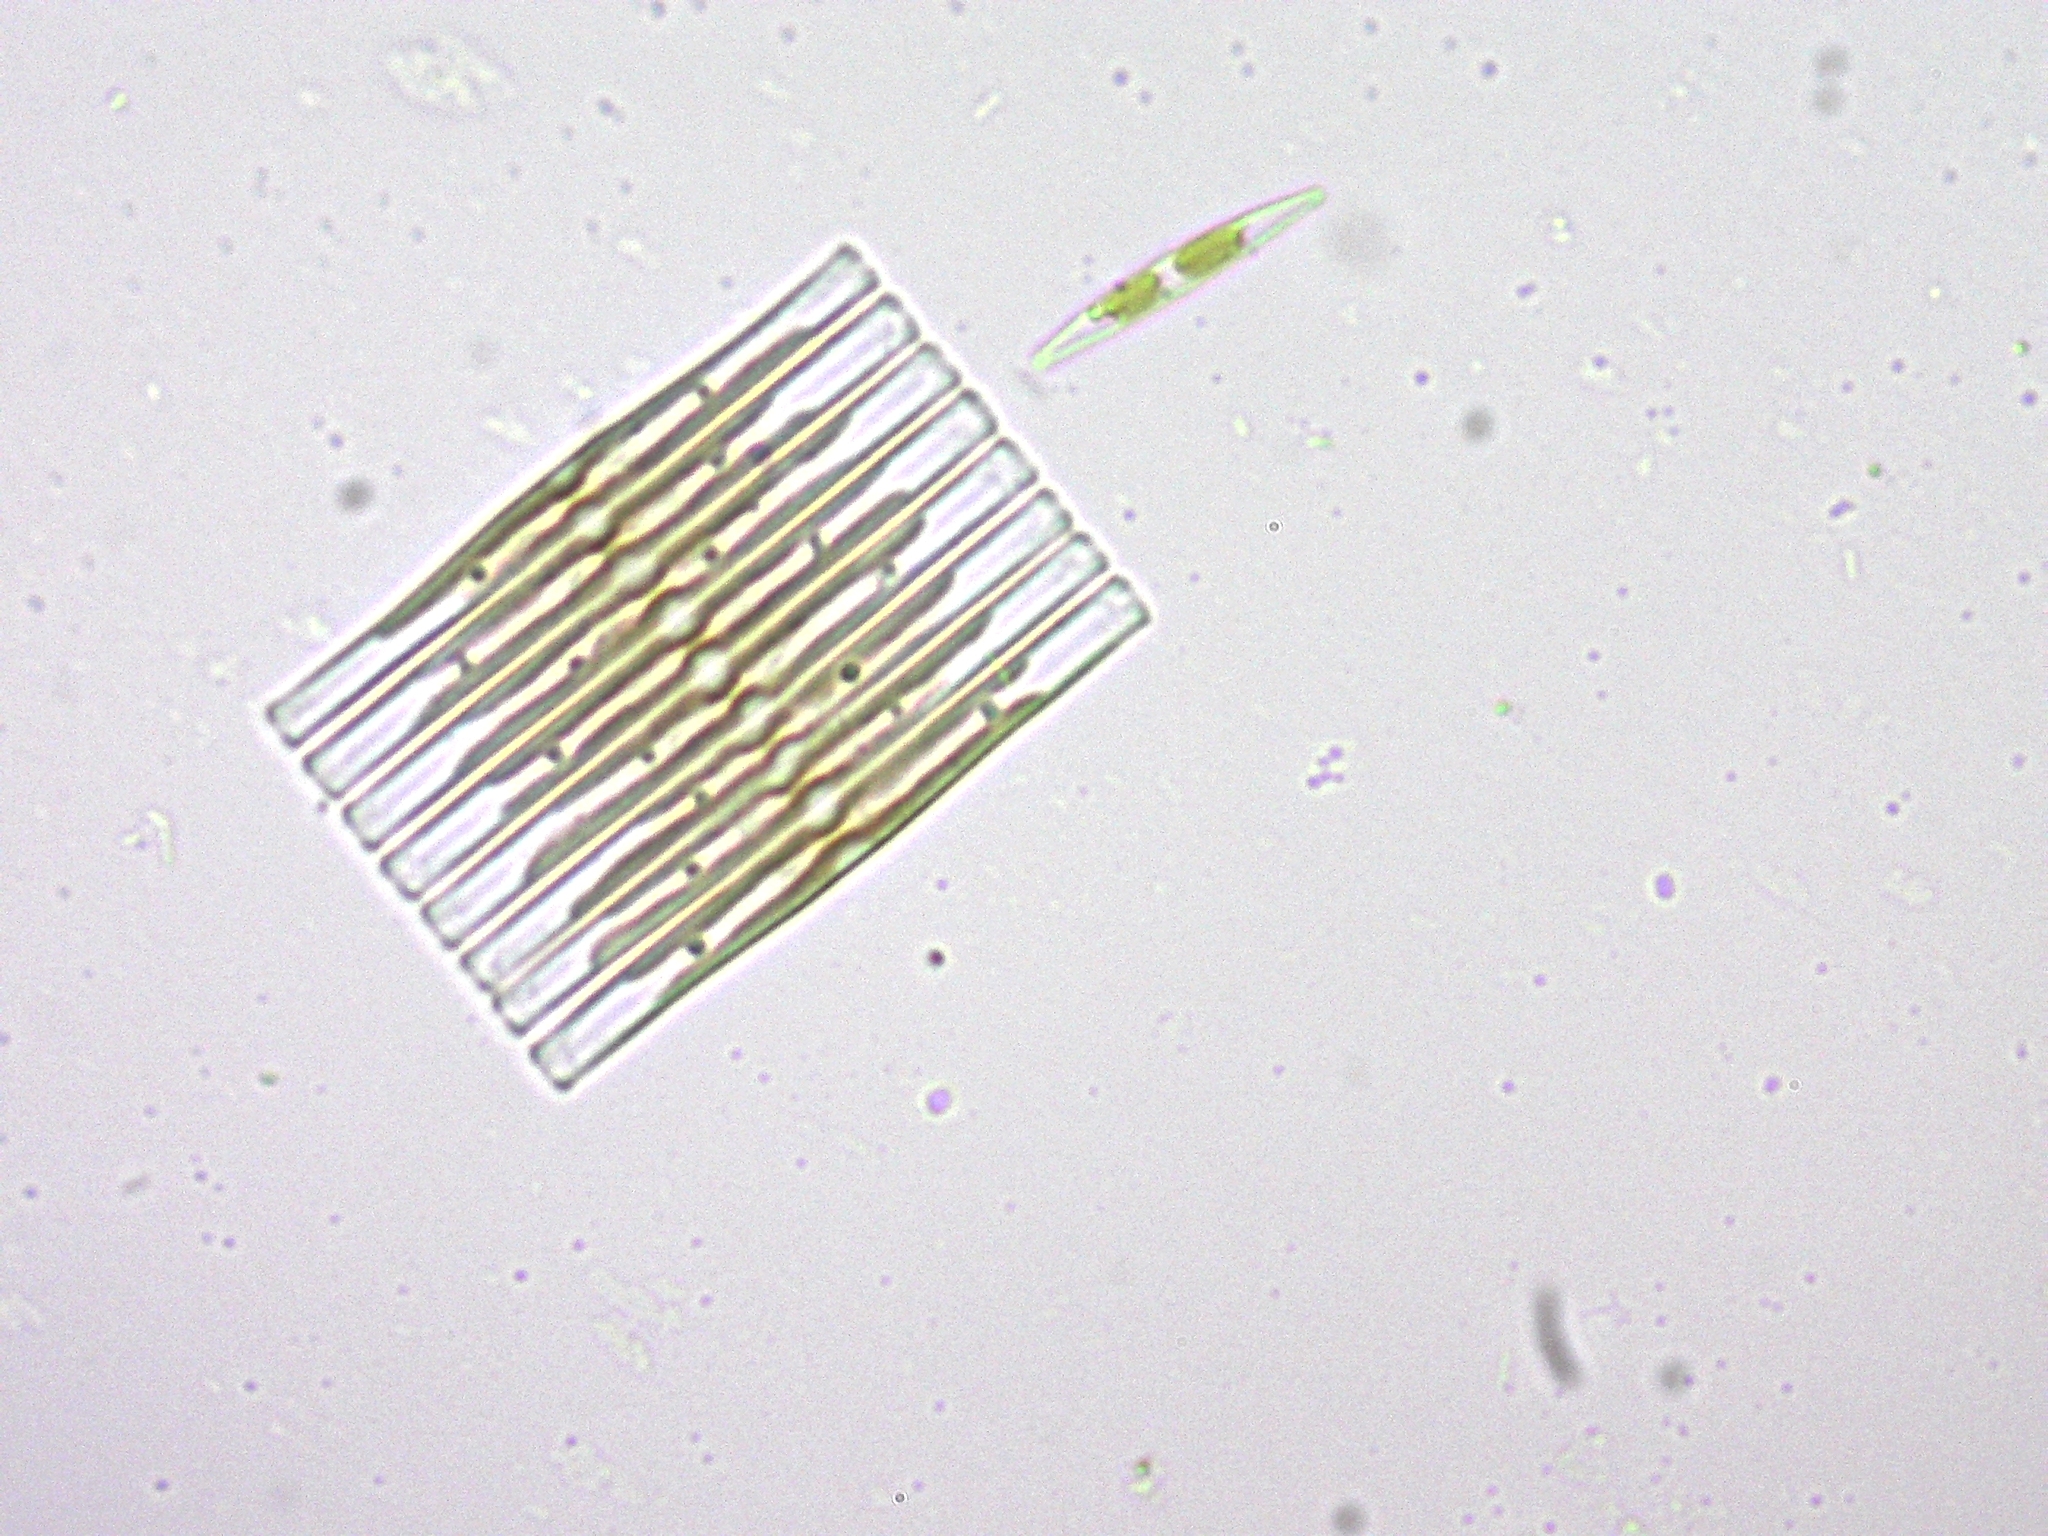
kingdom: Chromista
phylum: Ochrophyta
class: Bacillariophyceae
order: Fragilariales
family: Fragilariaceae
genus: Fragilaria
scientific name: Fragilaria crotonensis
